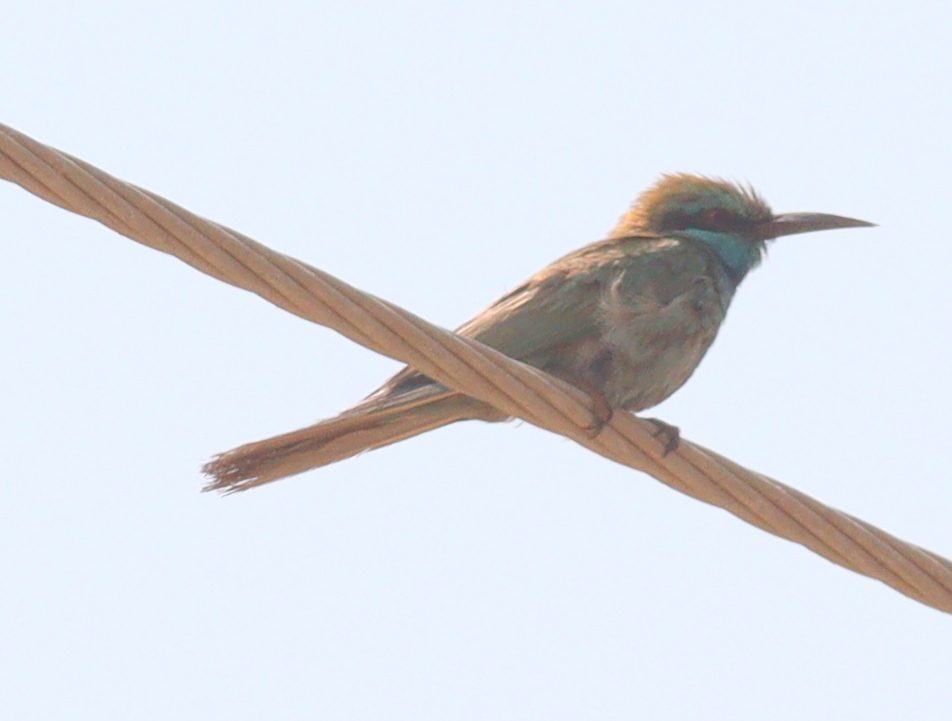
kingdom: Animalia
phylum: Chordata
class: Aves
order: Coraciiformes
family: Meropidae
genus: Merops
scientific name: Merops cyanophrys
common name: Arabian green bee-eater
